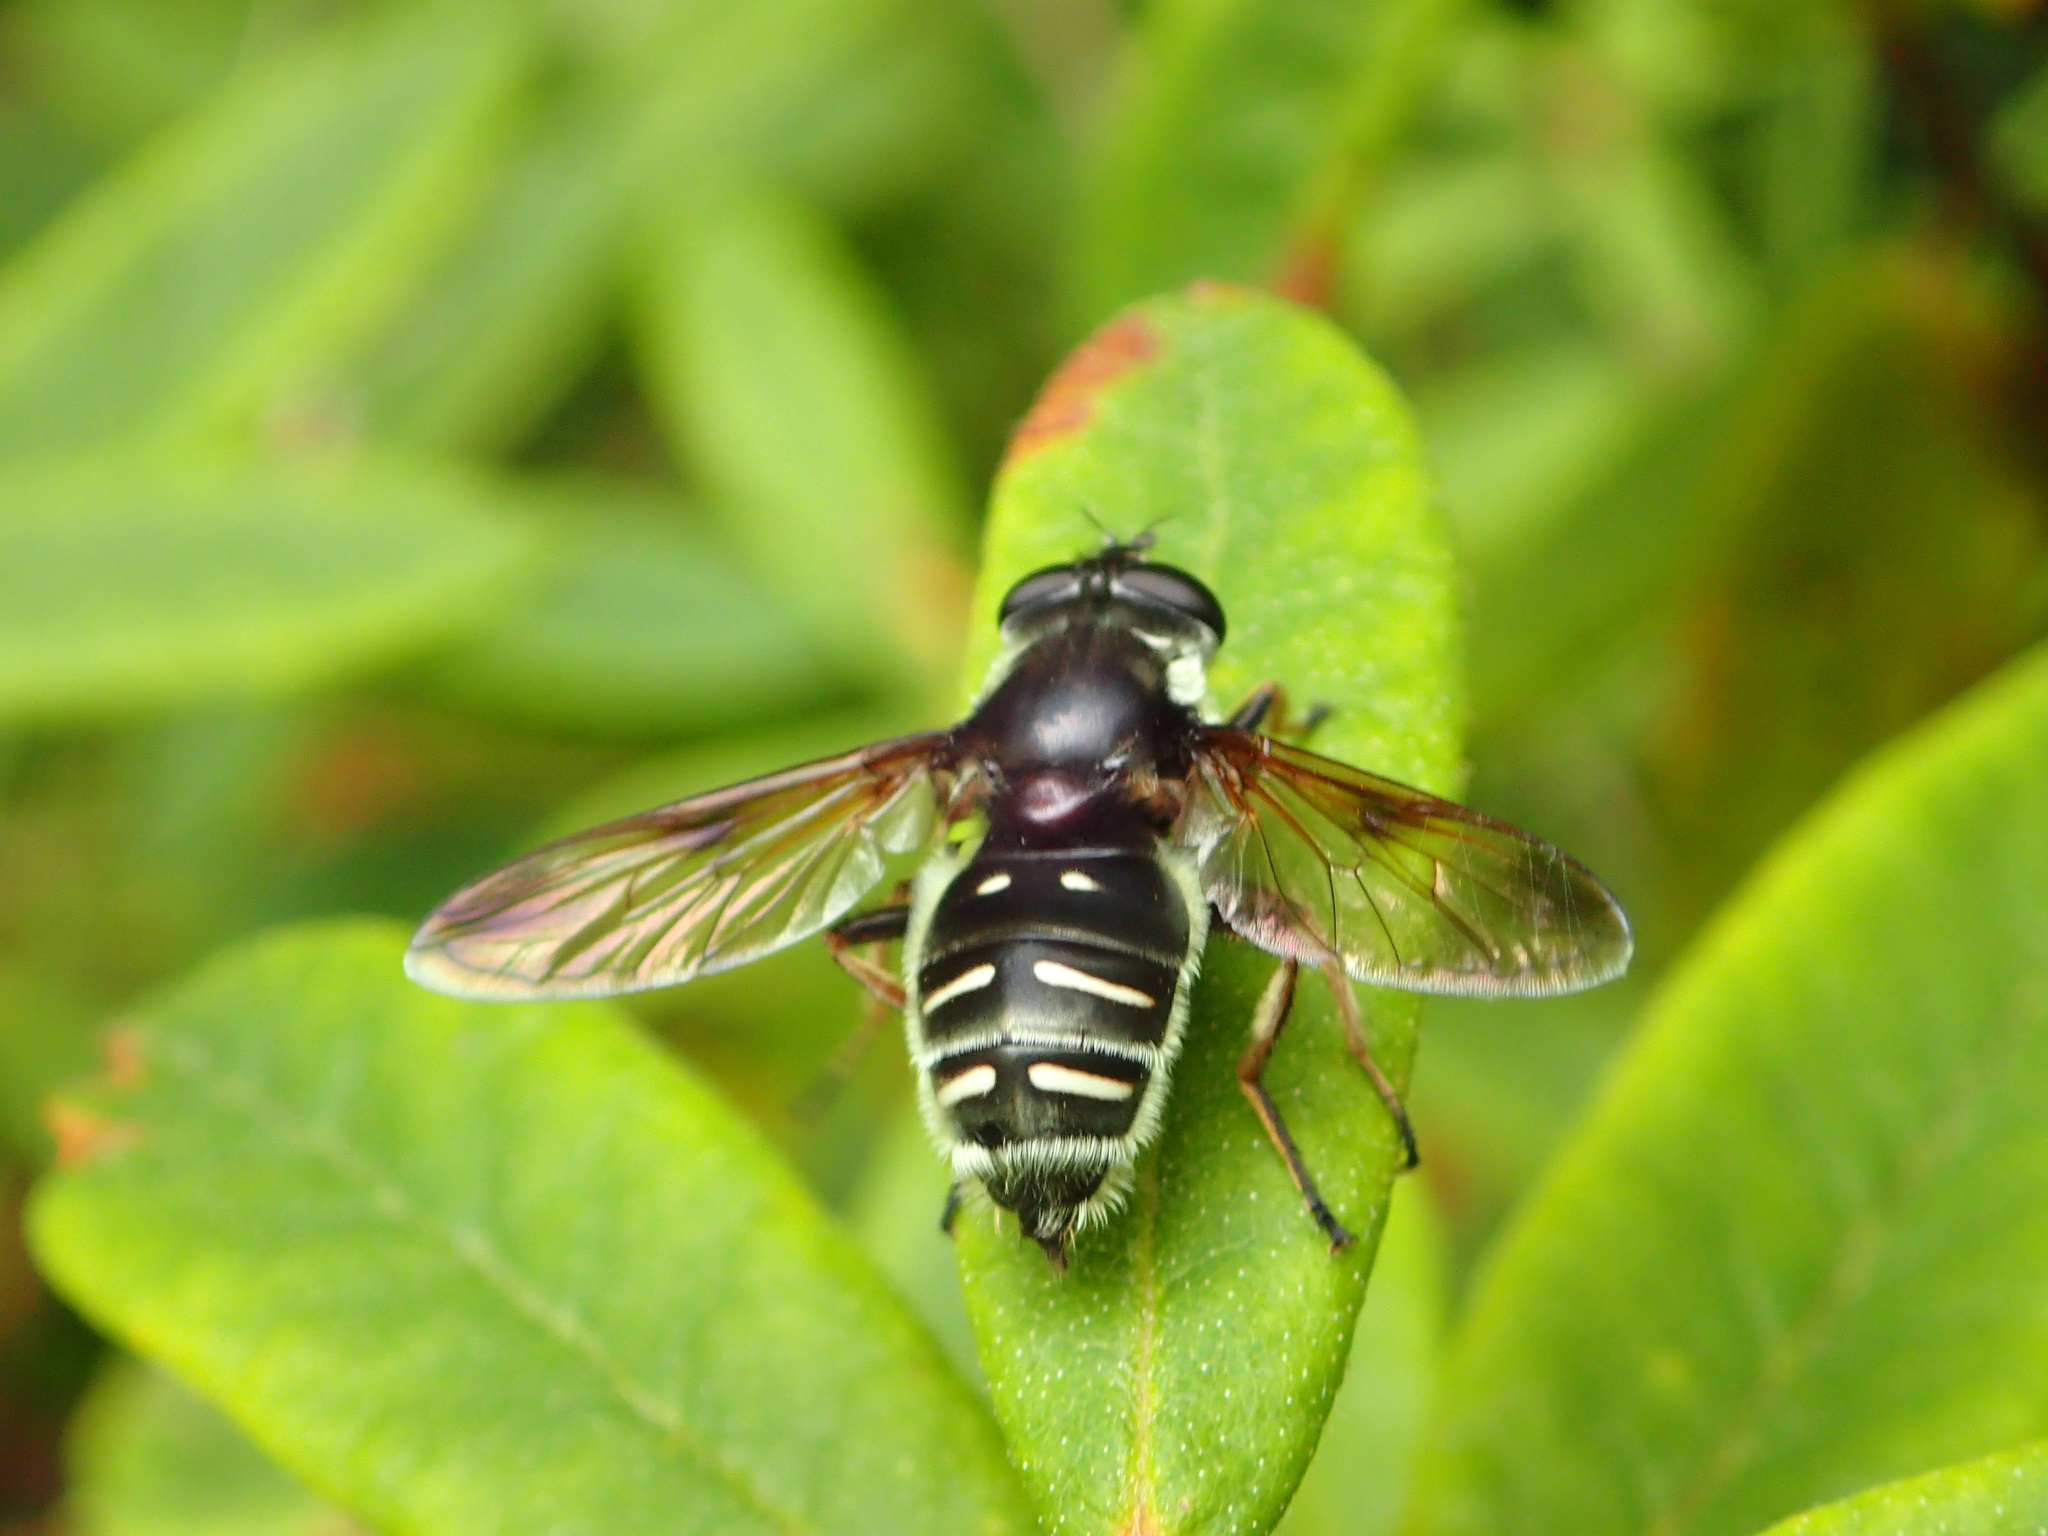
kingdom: Animalia
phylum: Arthropoda
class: Insecta
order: Diptera
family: Syrphidae
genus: Sericomyia
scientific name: Sericomyia militaris
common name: Narrow-banded pond fly
